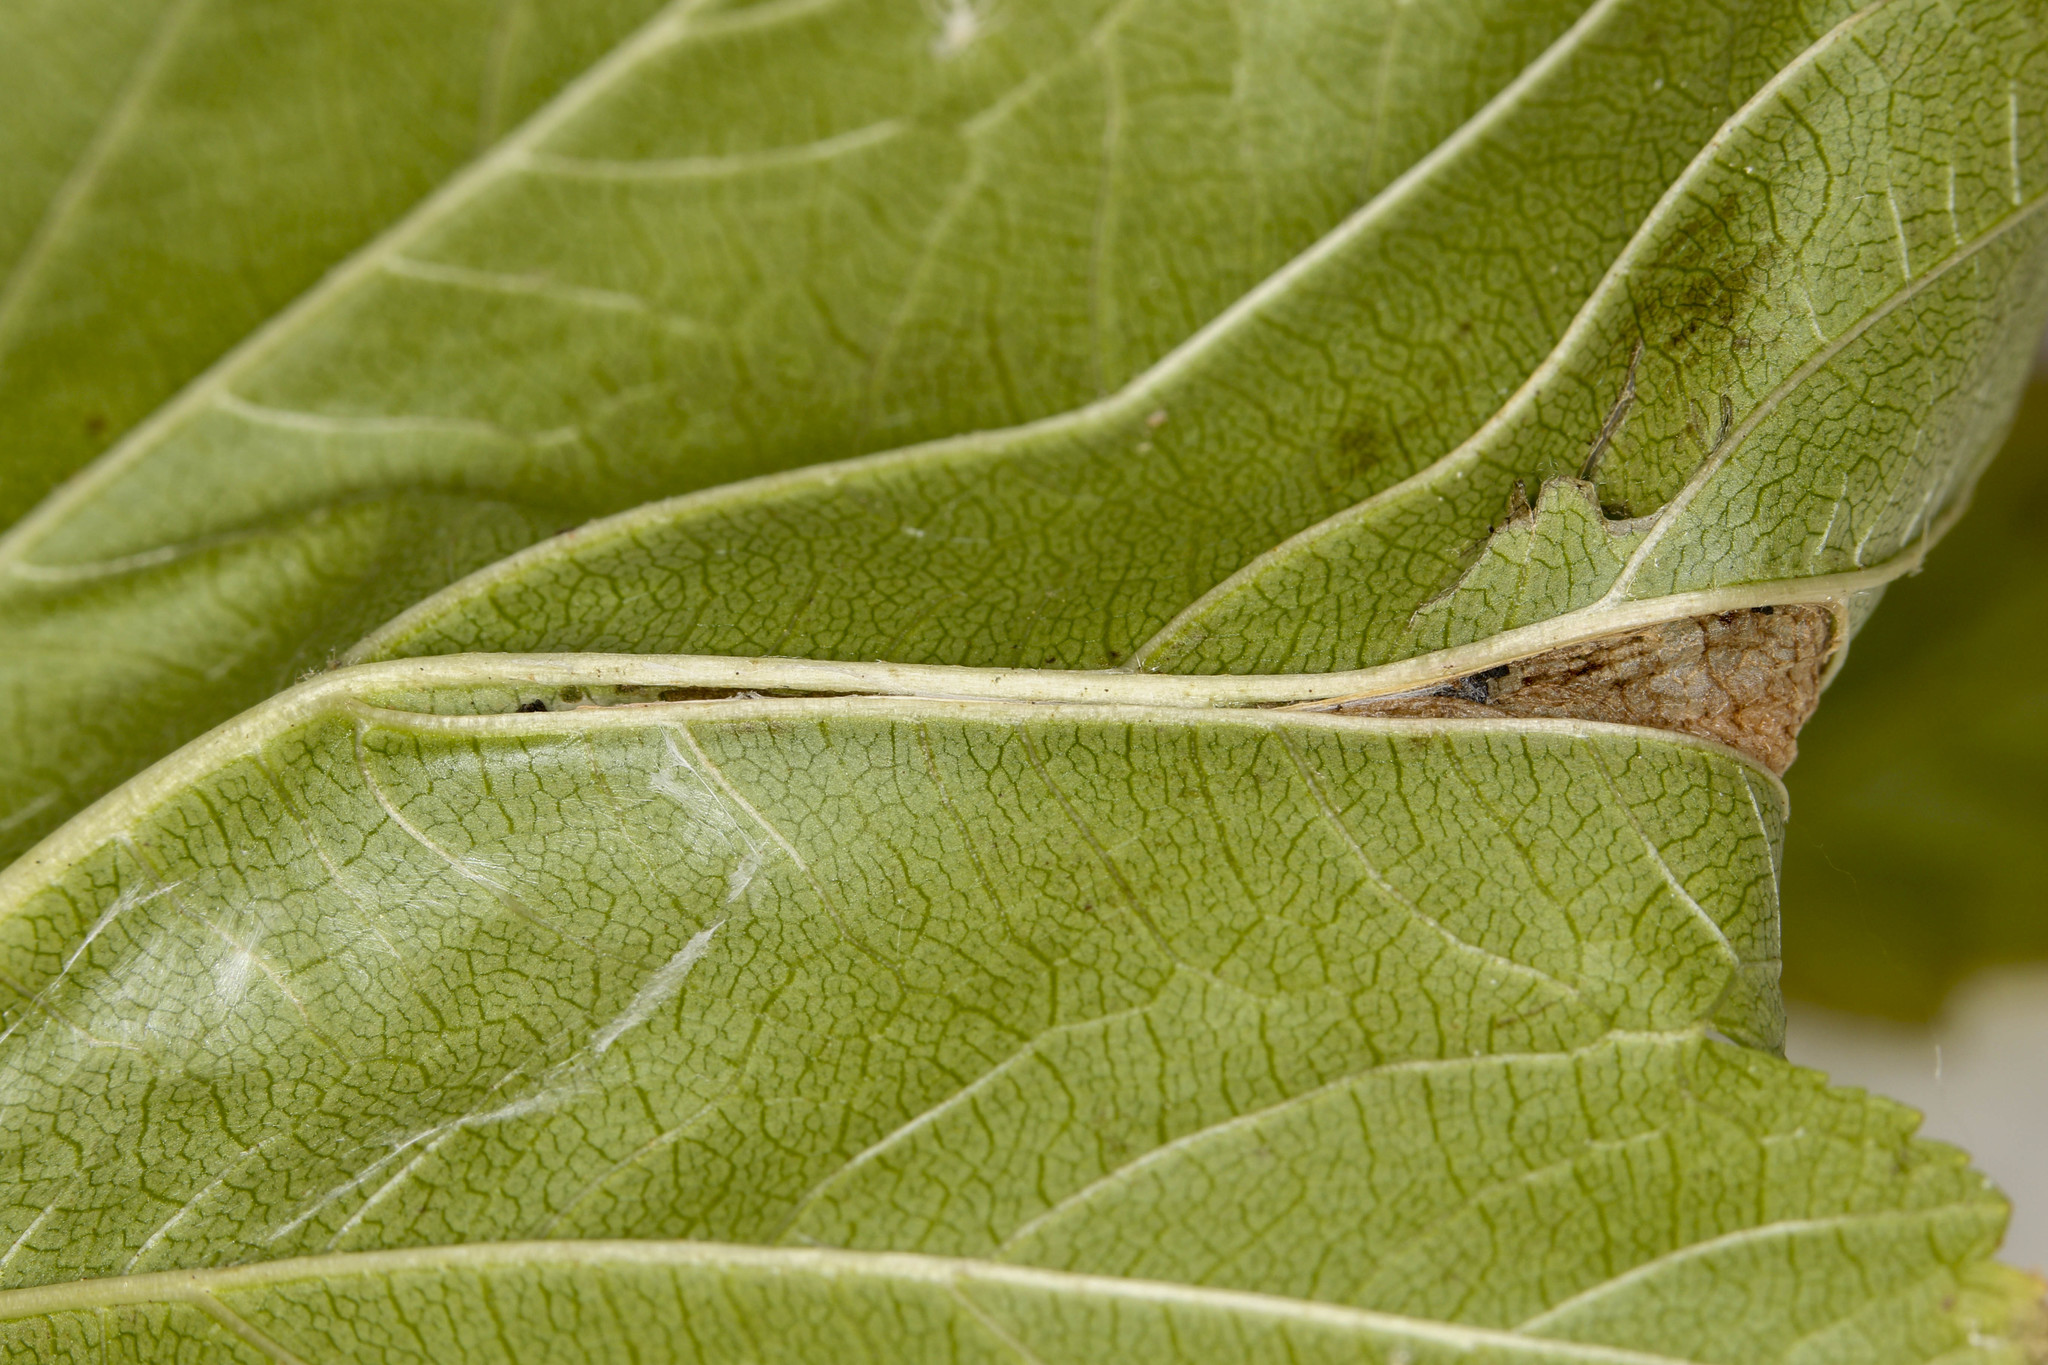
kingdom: Animalia
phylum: Arthropoda
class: Insecta
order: Lepidoptera
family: Tortricidae
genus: Ancylis
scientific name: Ancylis spiraeifoliana
